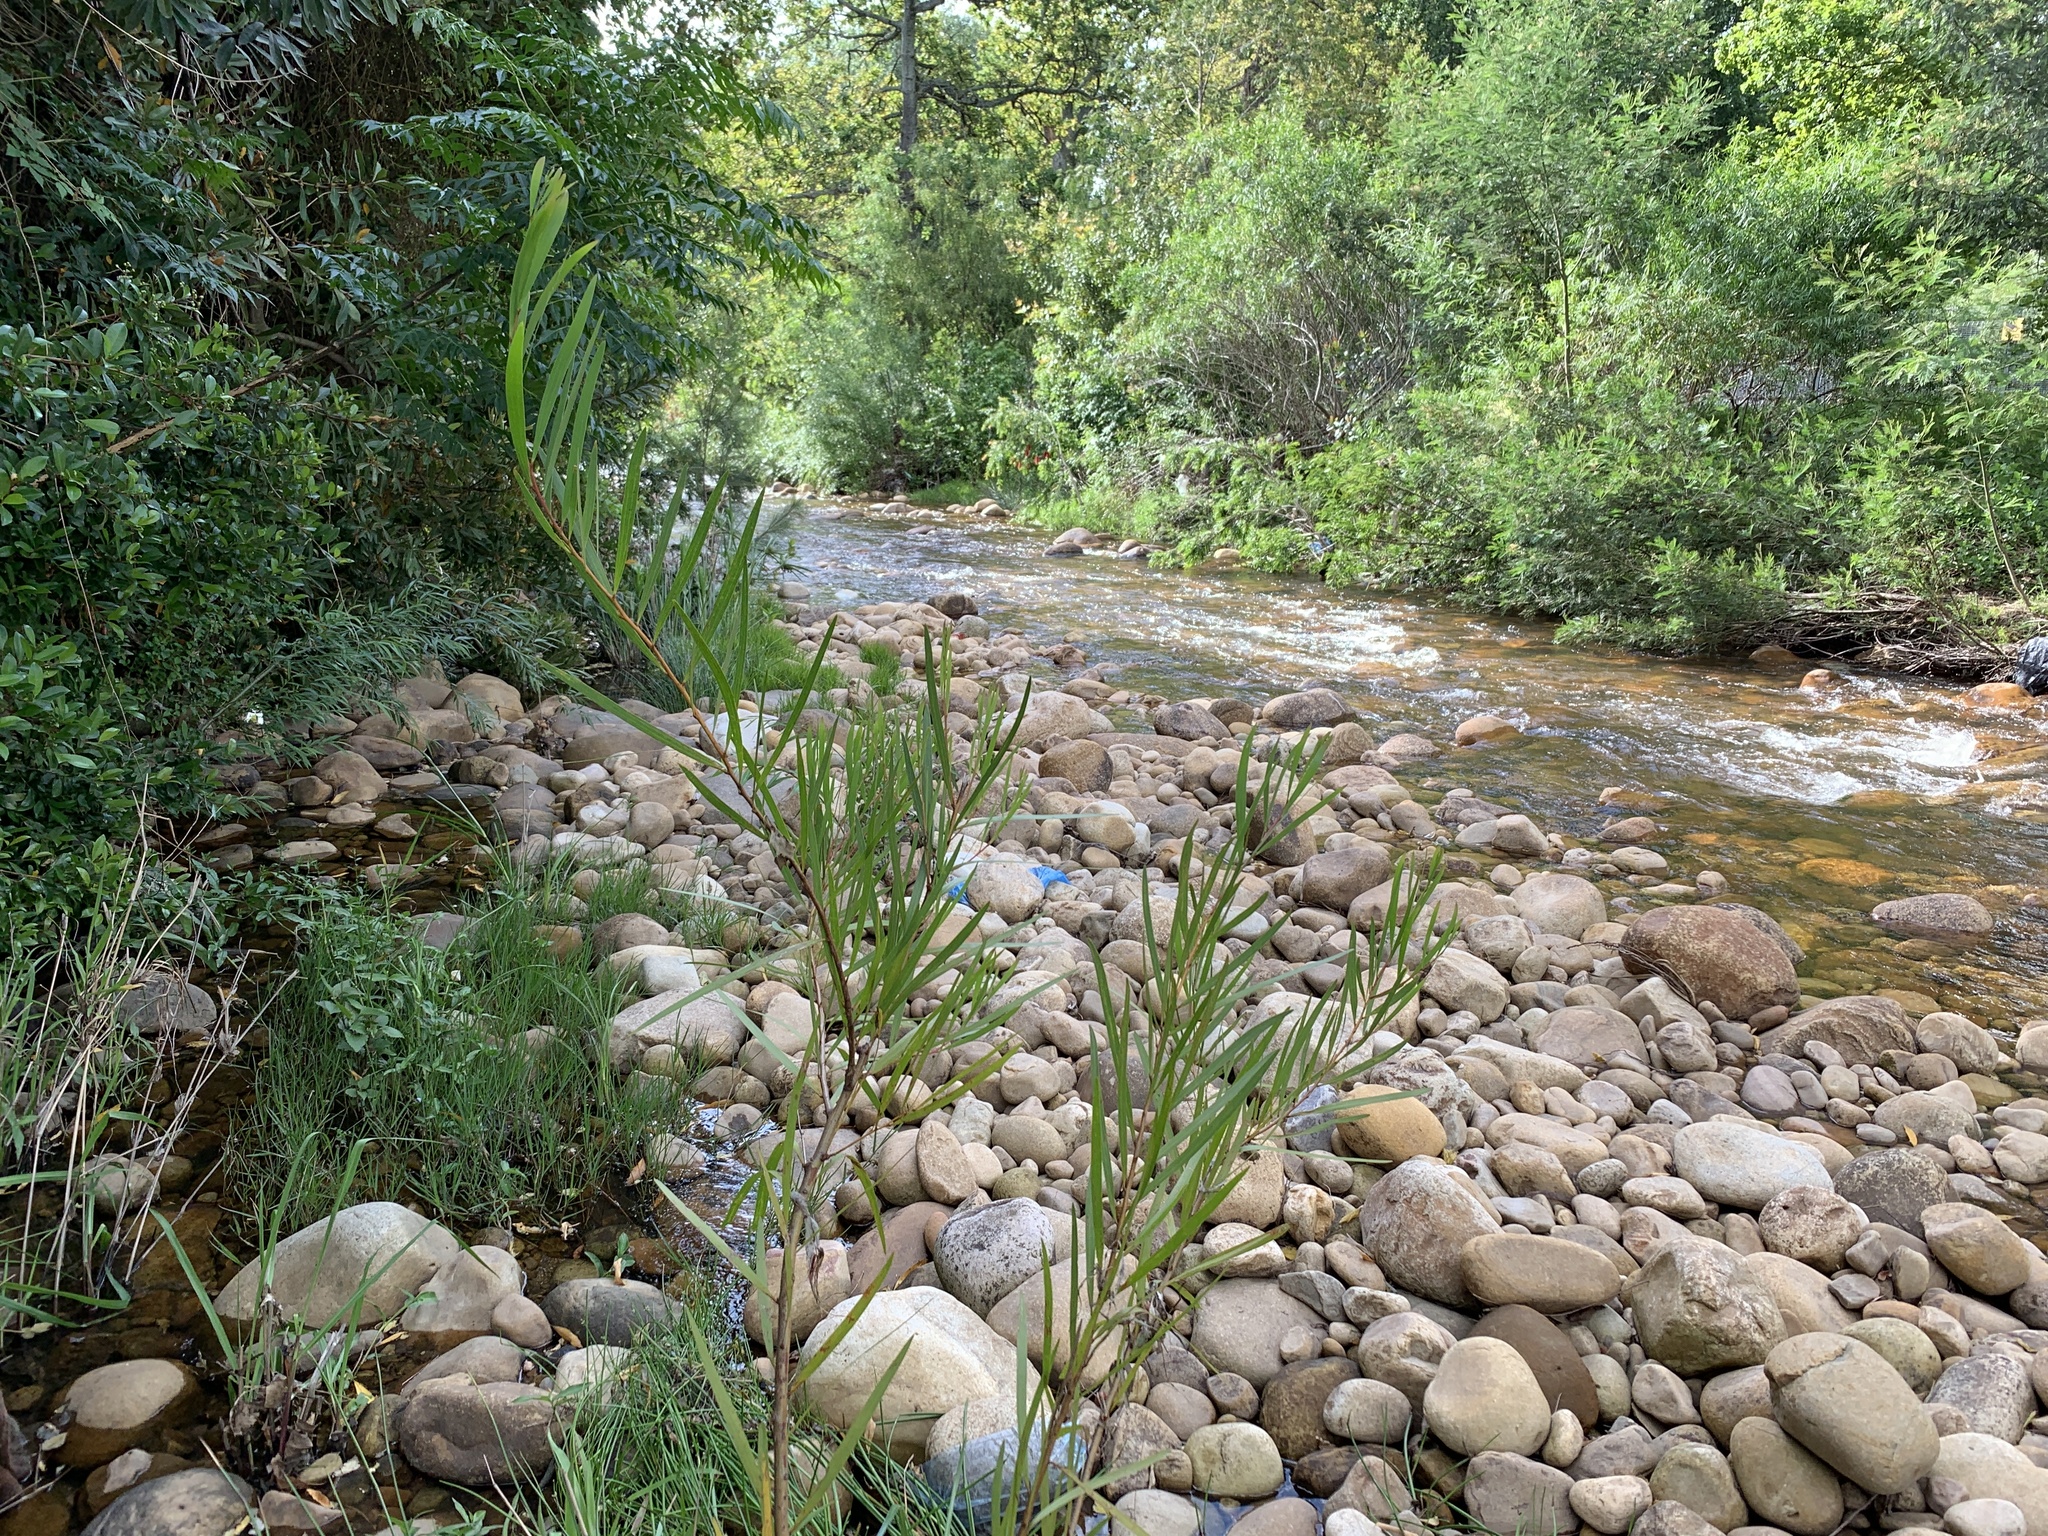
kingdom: Plantae
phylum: Tracheophyta
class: Magnoliopsida
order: Fabales
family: Fabaceae
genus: Acacia
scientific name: Acacia longifolia
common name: Sydney golden wattle
